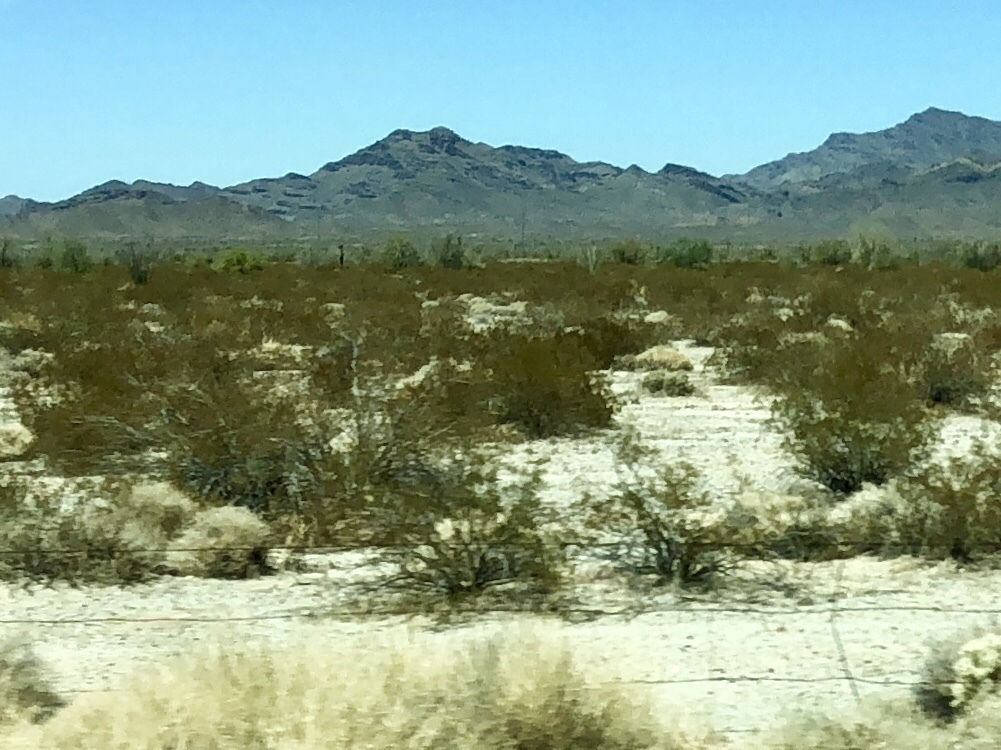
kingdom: Plantae
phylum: Tracheophyta
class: Magnoliopsida
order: Zygophyllales
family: Zygophyllaceae
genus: Larrea
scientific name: Larrea tridentata
